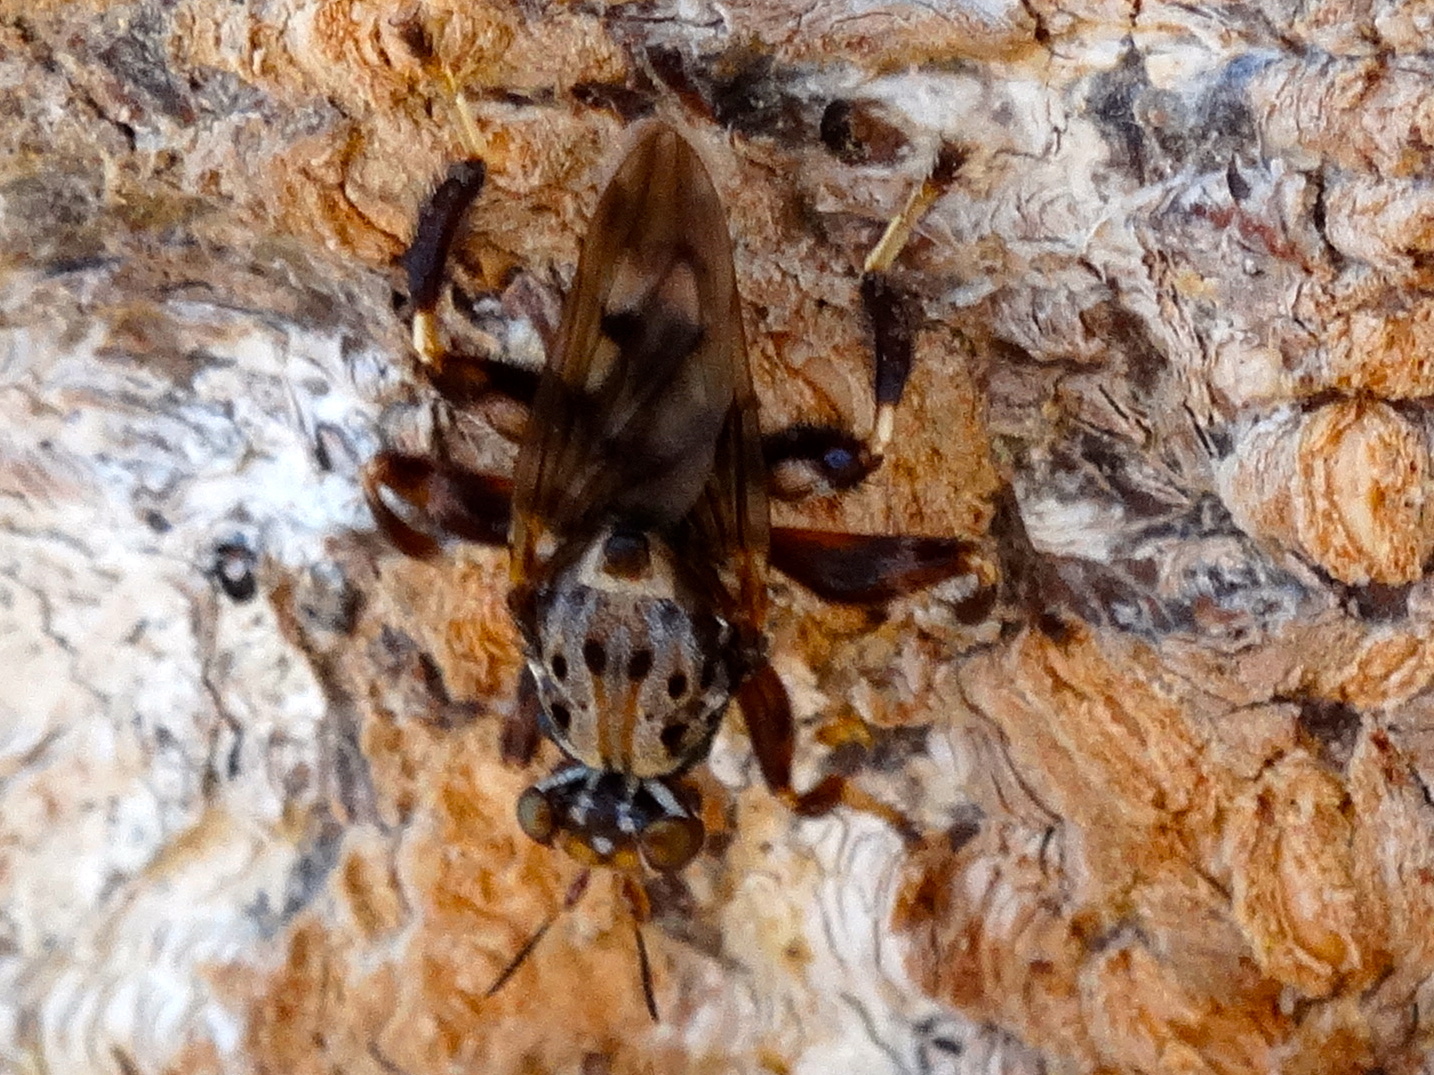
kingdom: Animalia
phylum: Arthropoda
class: Insecta
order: Diptera
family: Ropalomeridae
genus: Mexicoa
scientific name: Mexicoa mexicana
